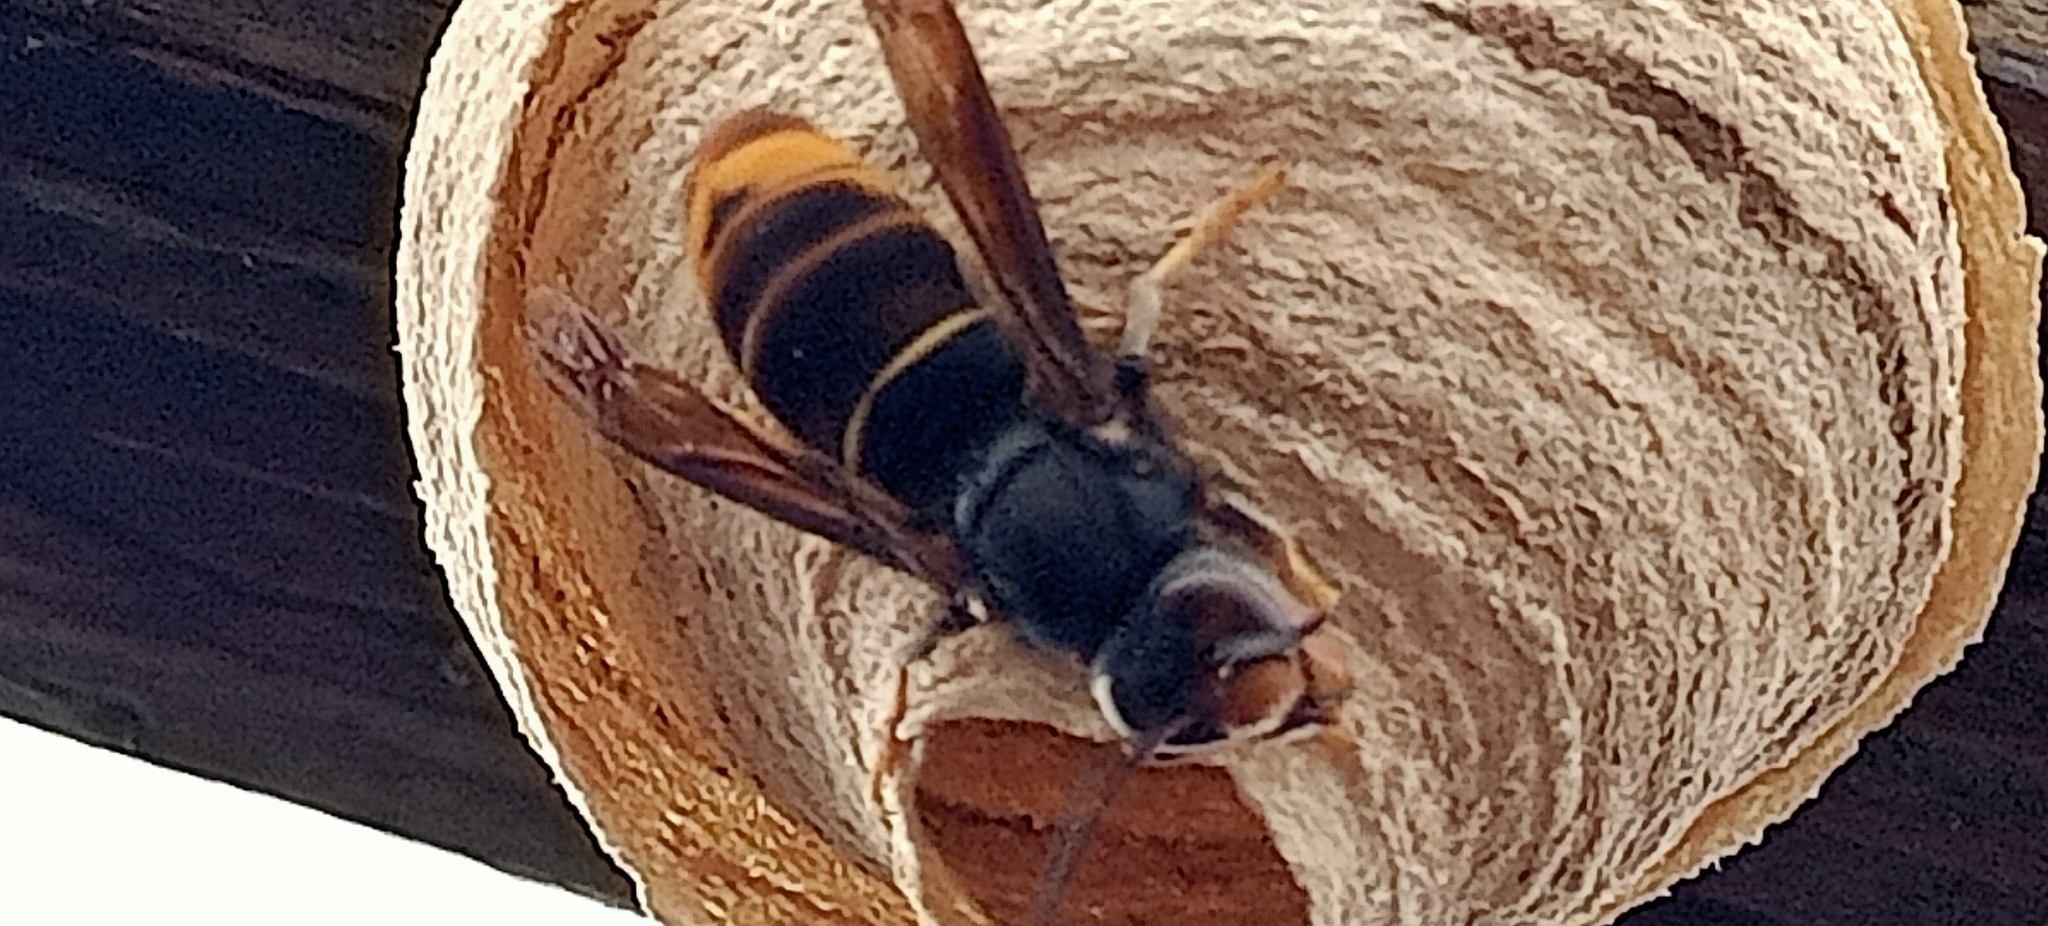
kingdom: Animalia
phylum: Arthropoda
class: Insecta
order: Hymenoptera
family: Vespidae
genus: Vespa
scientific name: Vespa velutina
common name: Asian hornet
